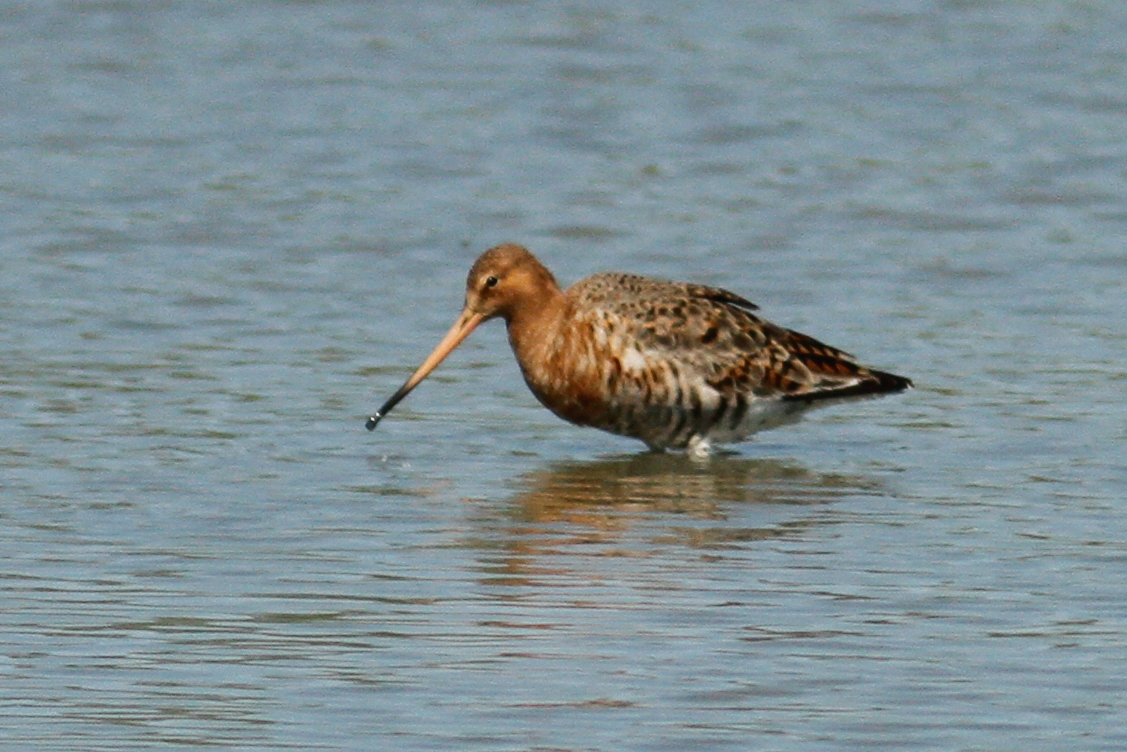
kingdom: Animalia
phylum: Chordata
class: Aves
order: Charadriiformes
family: Scolopacidae
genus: Limosa
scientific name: Limosa limosa
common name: Black-tailed godwit
